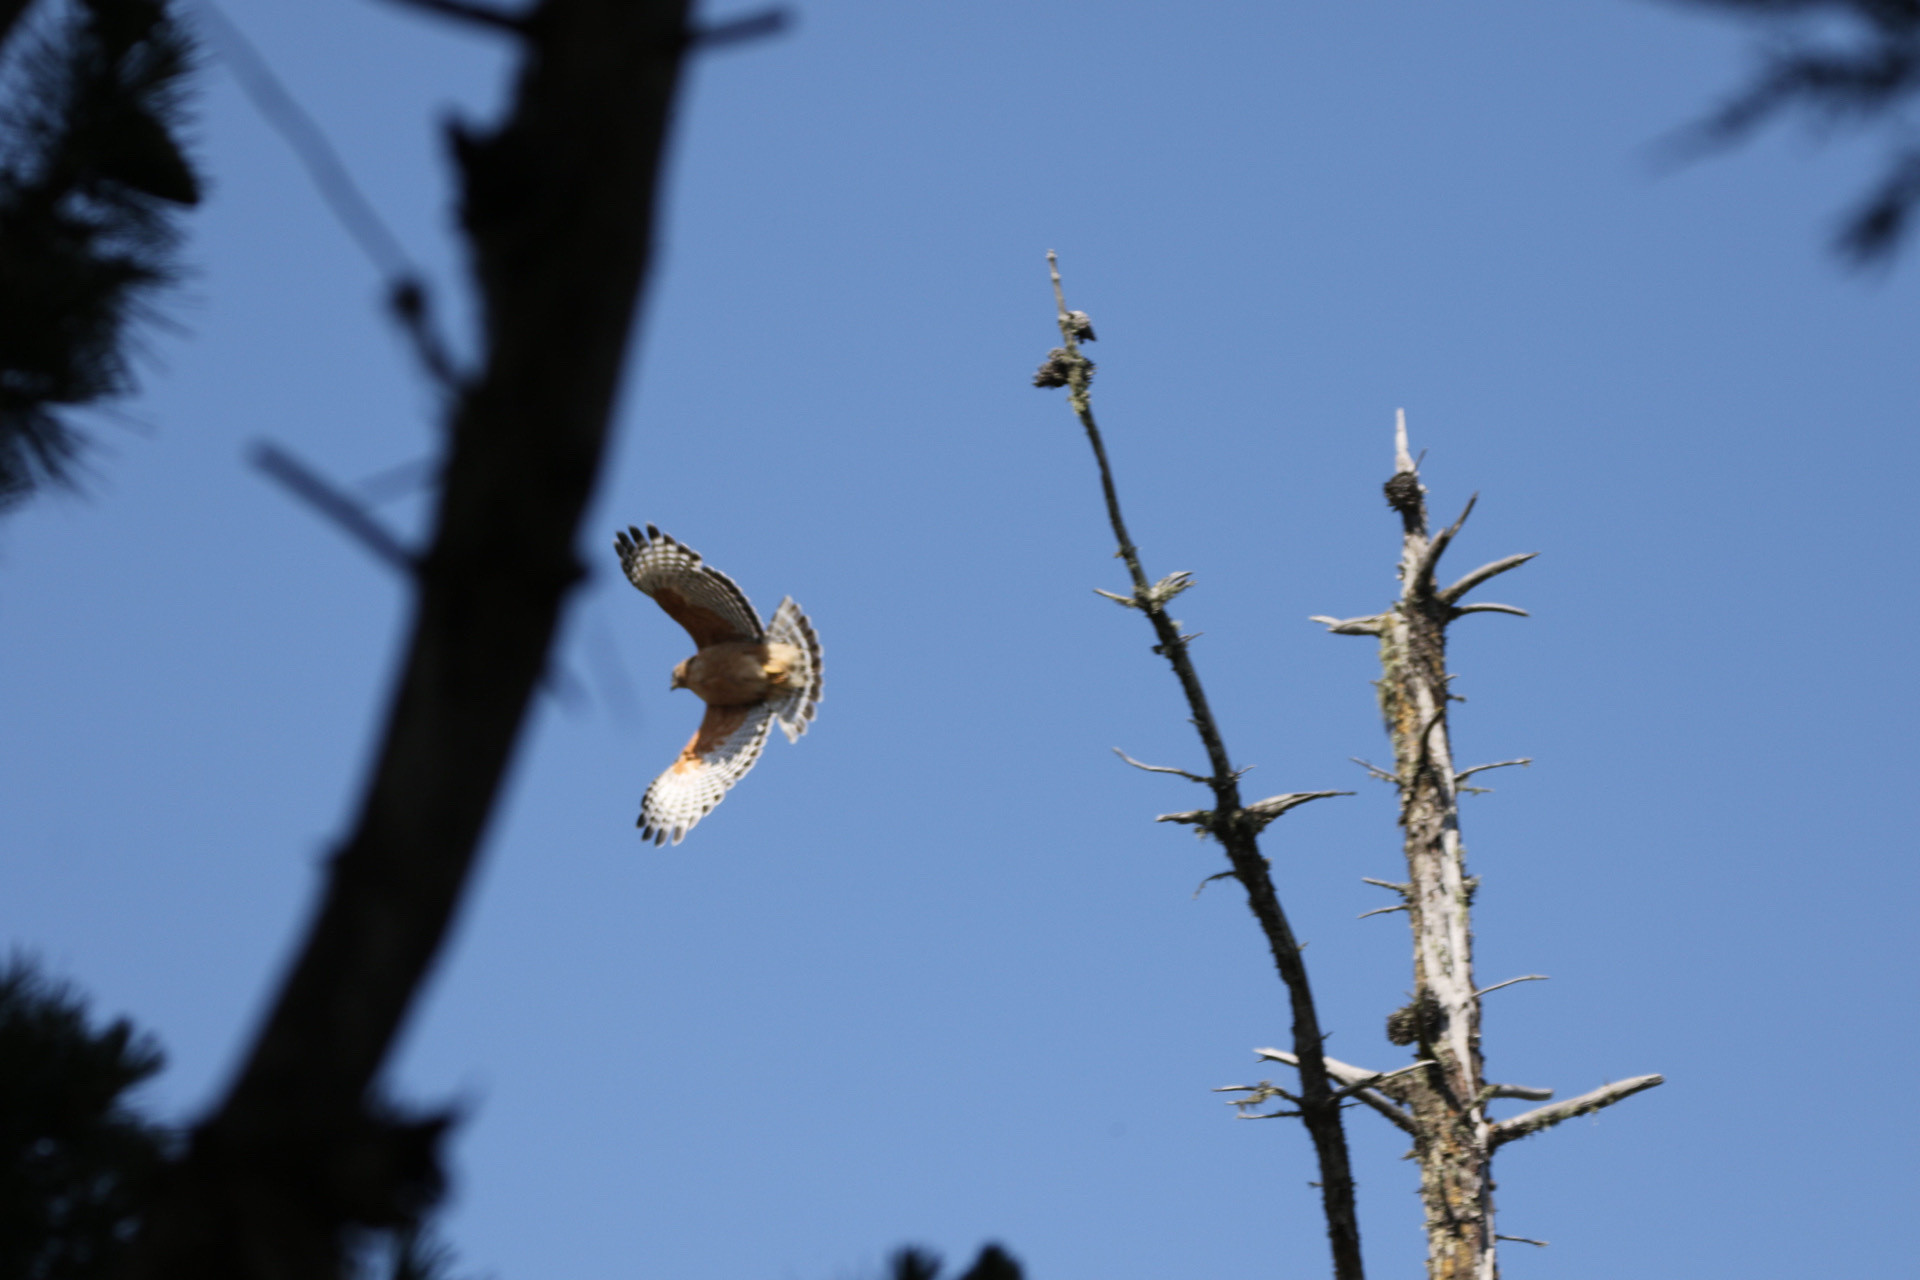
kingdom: Animalia
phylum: Chordata
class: Aves
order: Accipitriformes
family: Accipitridae
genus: Buteo
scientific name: Buteo lineatus
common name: Red-shouldered hawk
